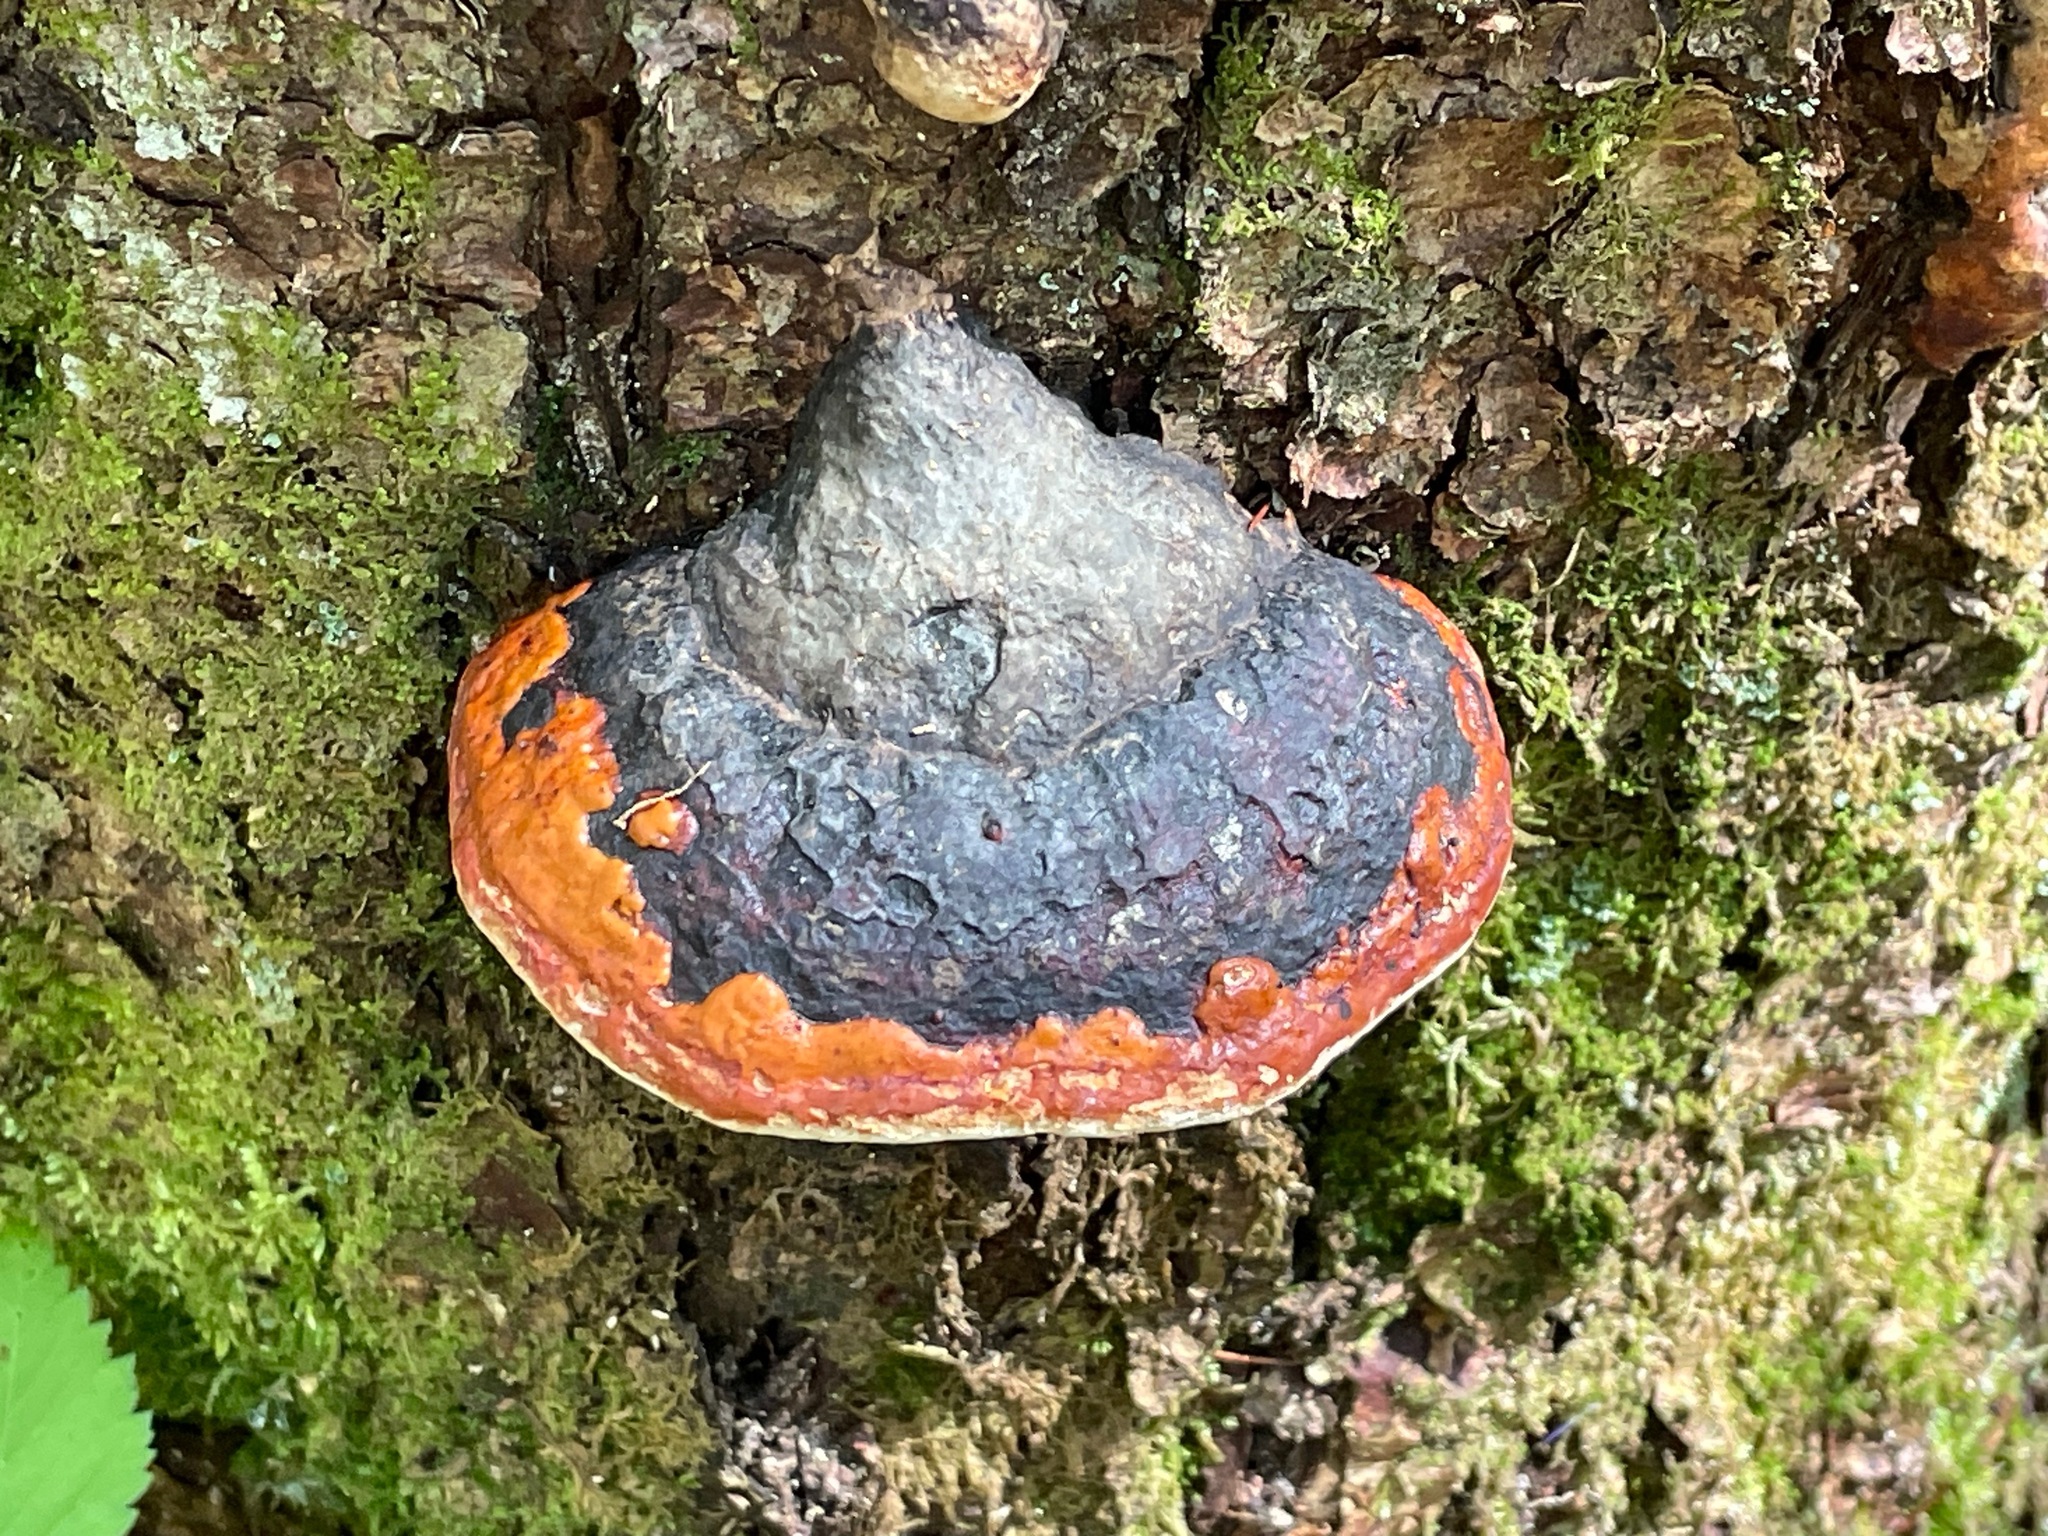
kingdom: Fungi
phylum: Basidiomycota
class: Agaricomycetes
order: Polyporales
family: Fomitopsidaceae
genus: Fomitopsis
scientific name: Fomitopsis mounceae
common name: Northern red belt
